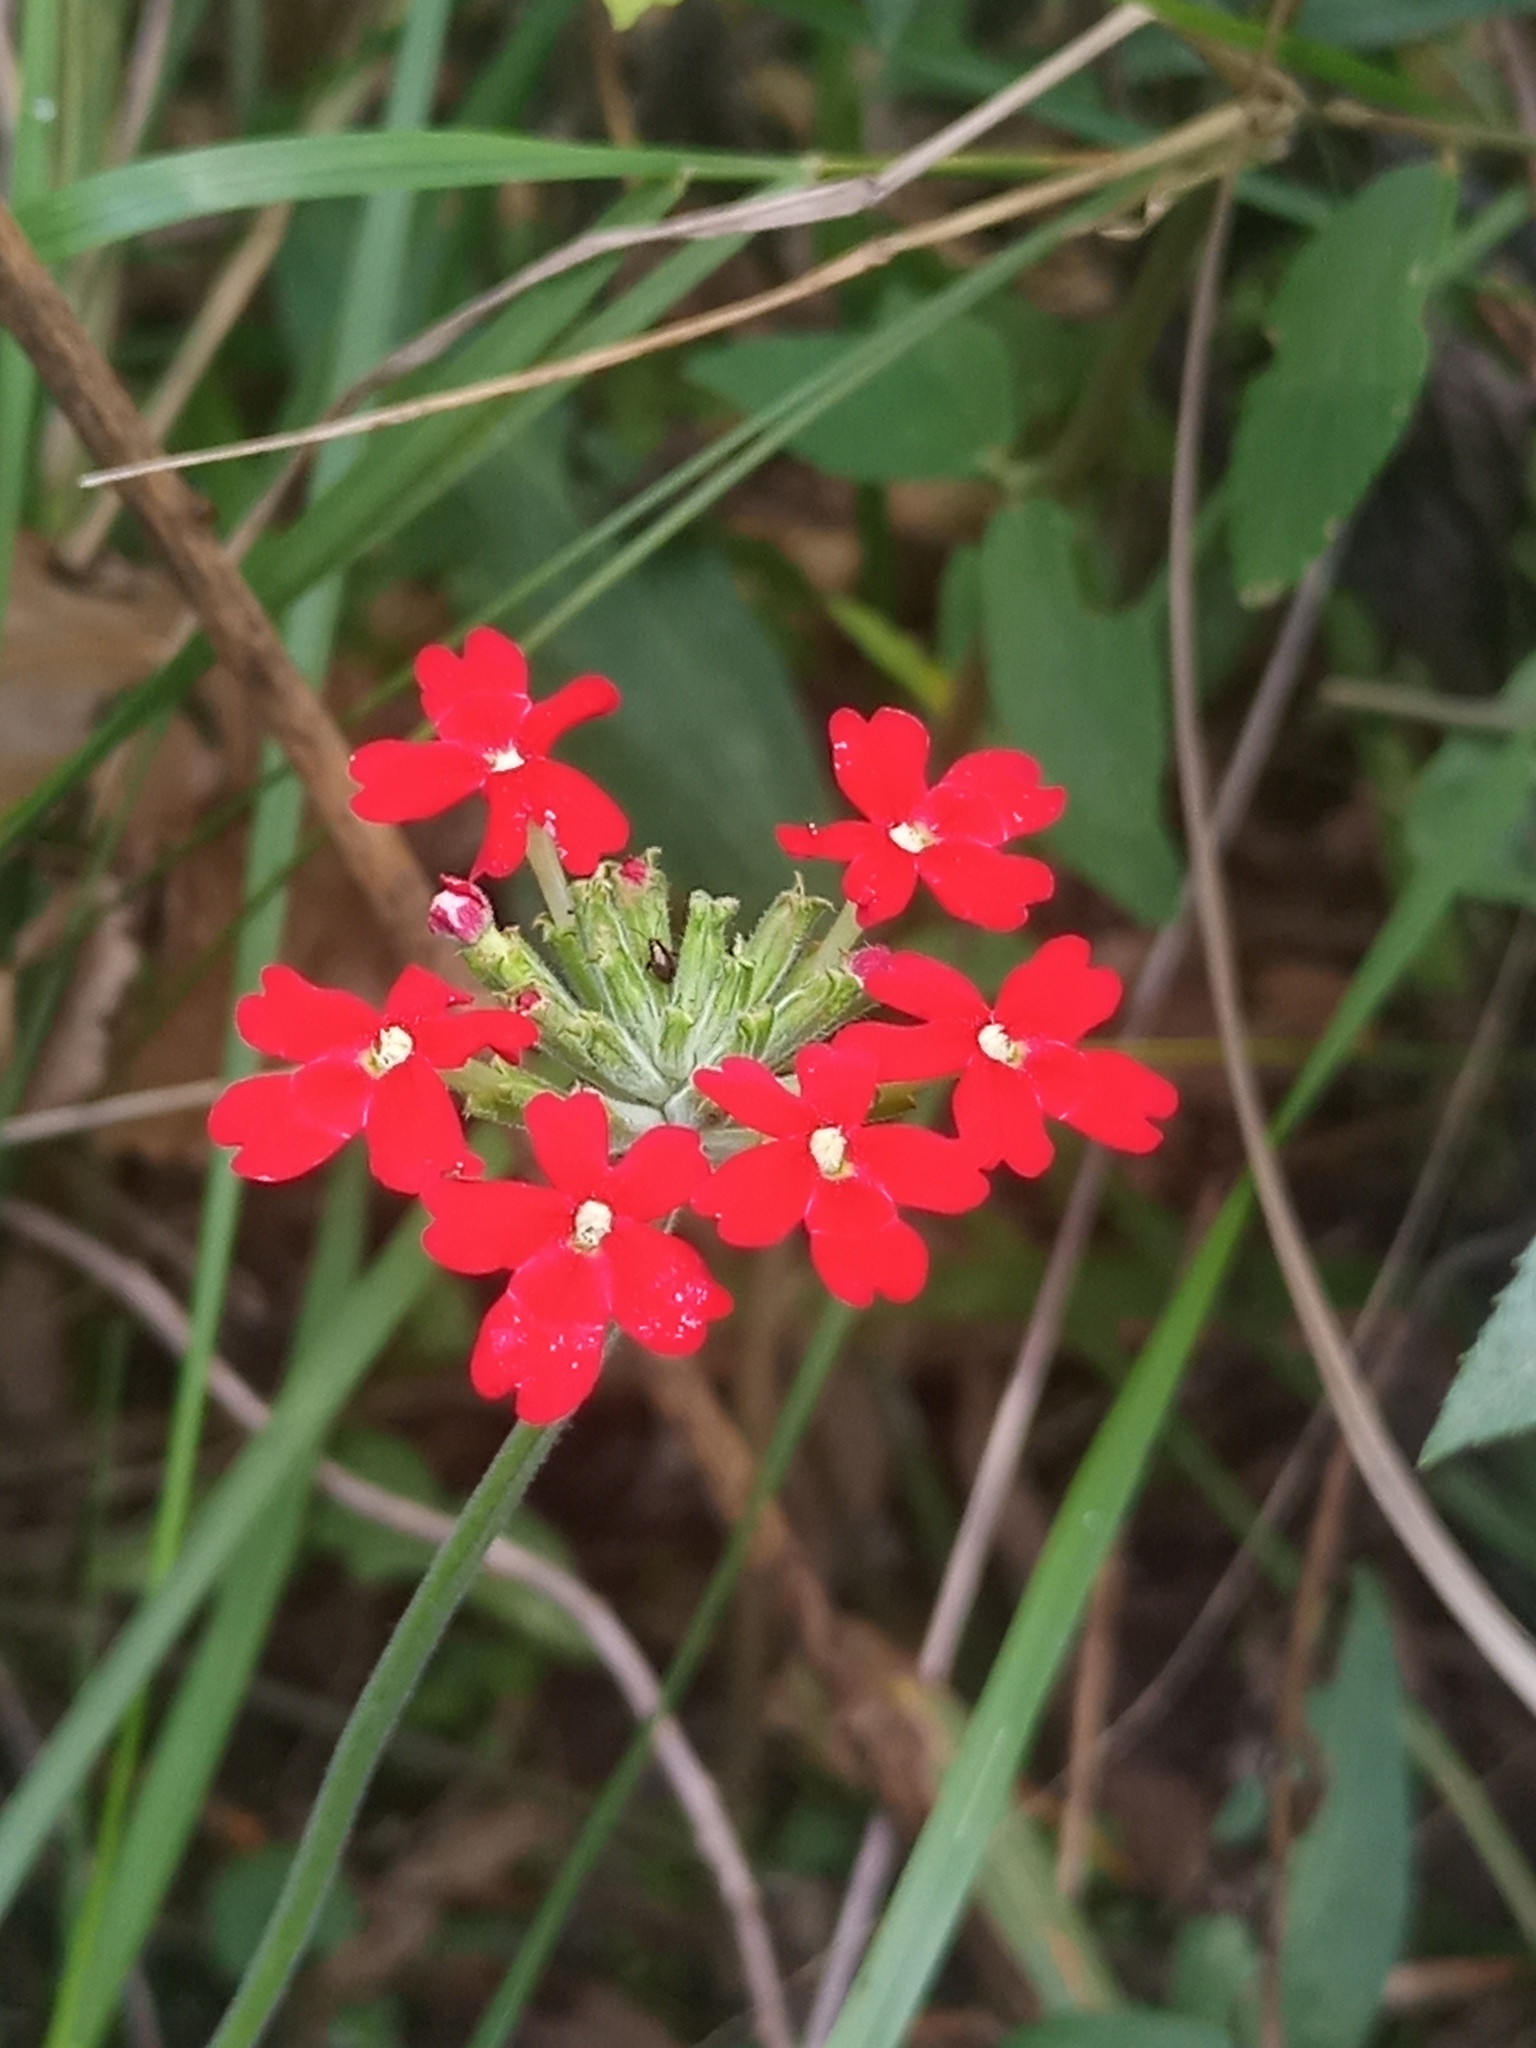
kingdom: Plantae
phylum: Tracheophyta
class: Magnoliopsida
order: Lamiales
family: Verbenaceae
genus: Verbena
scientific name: Verbena peruviana
